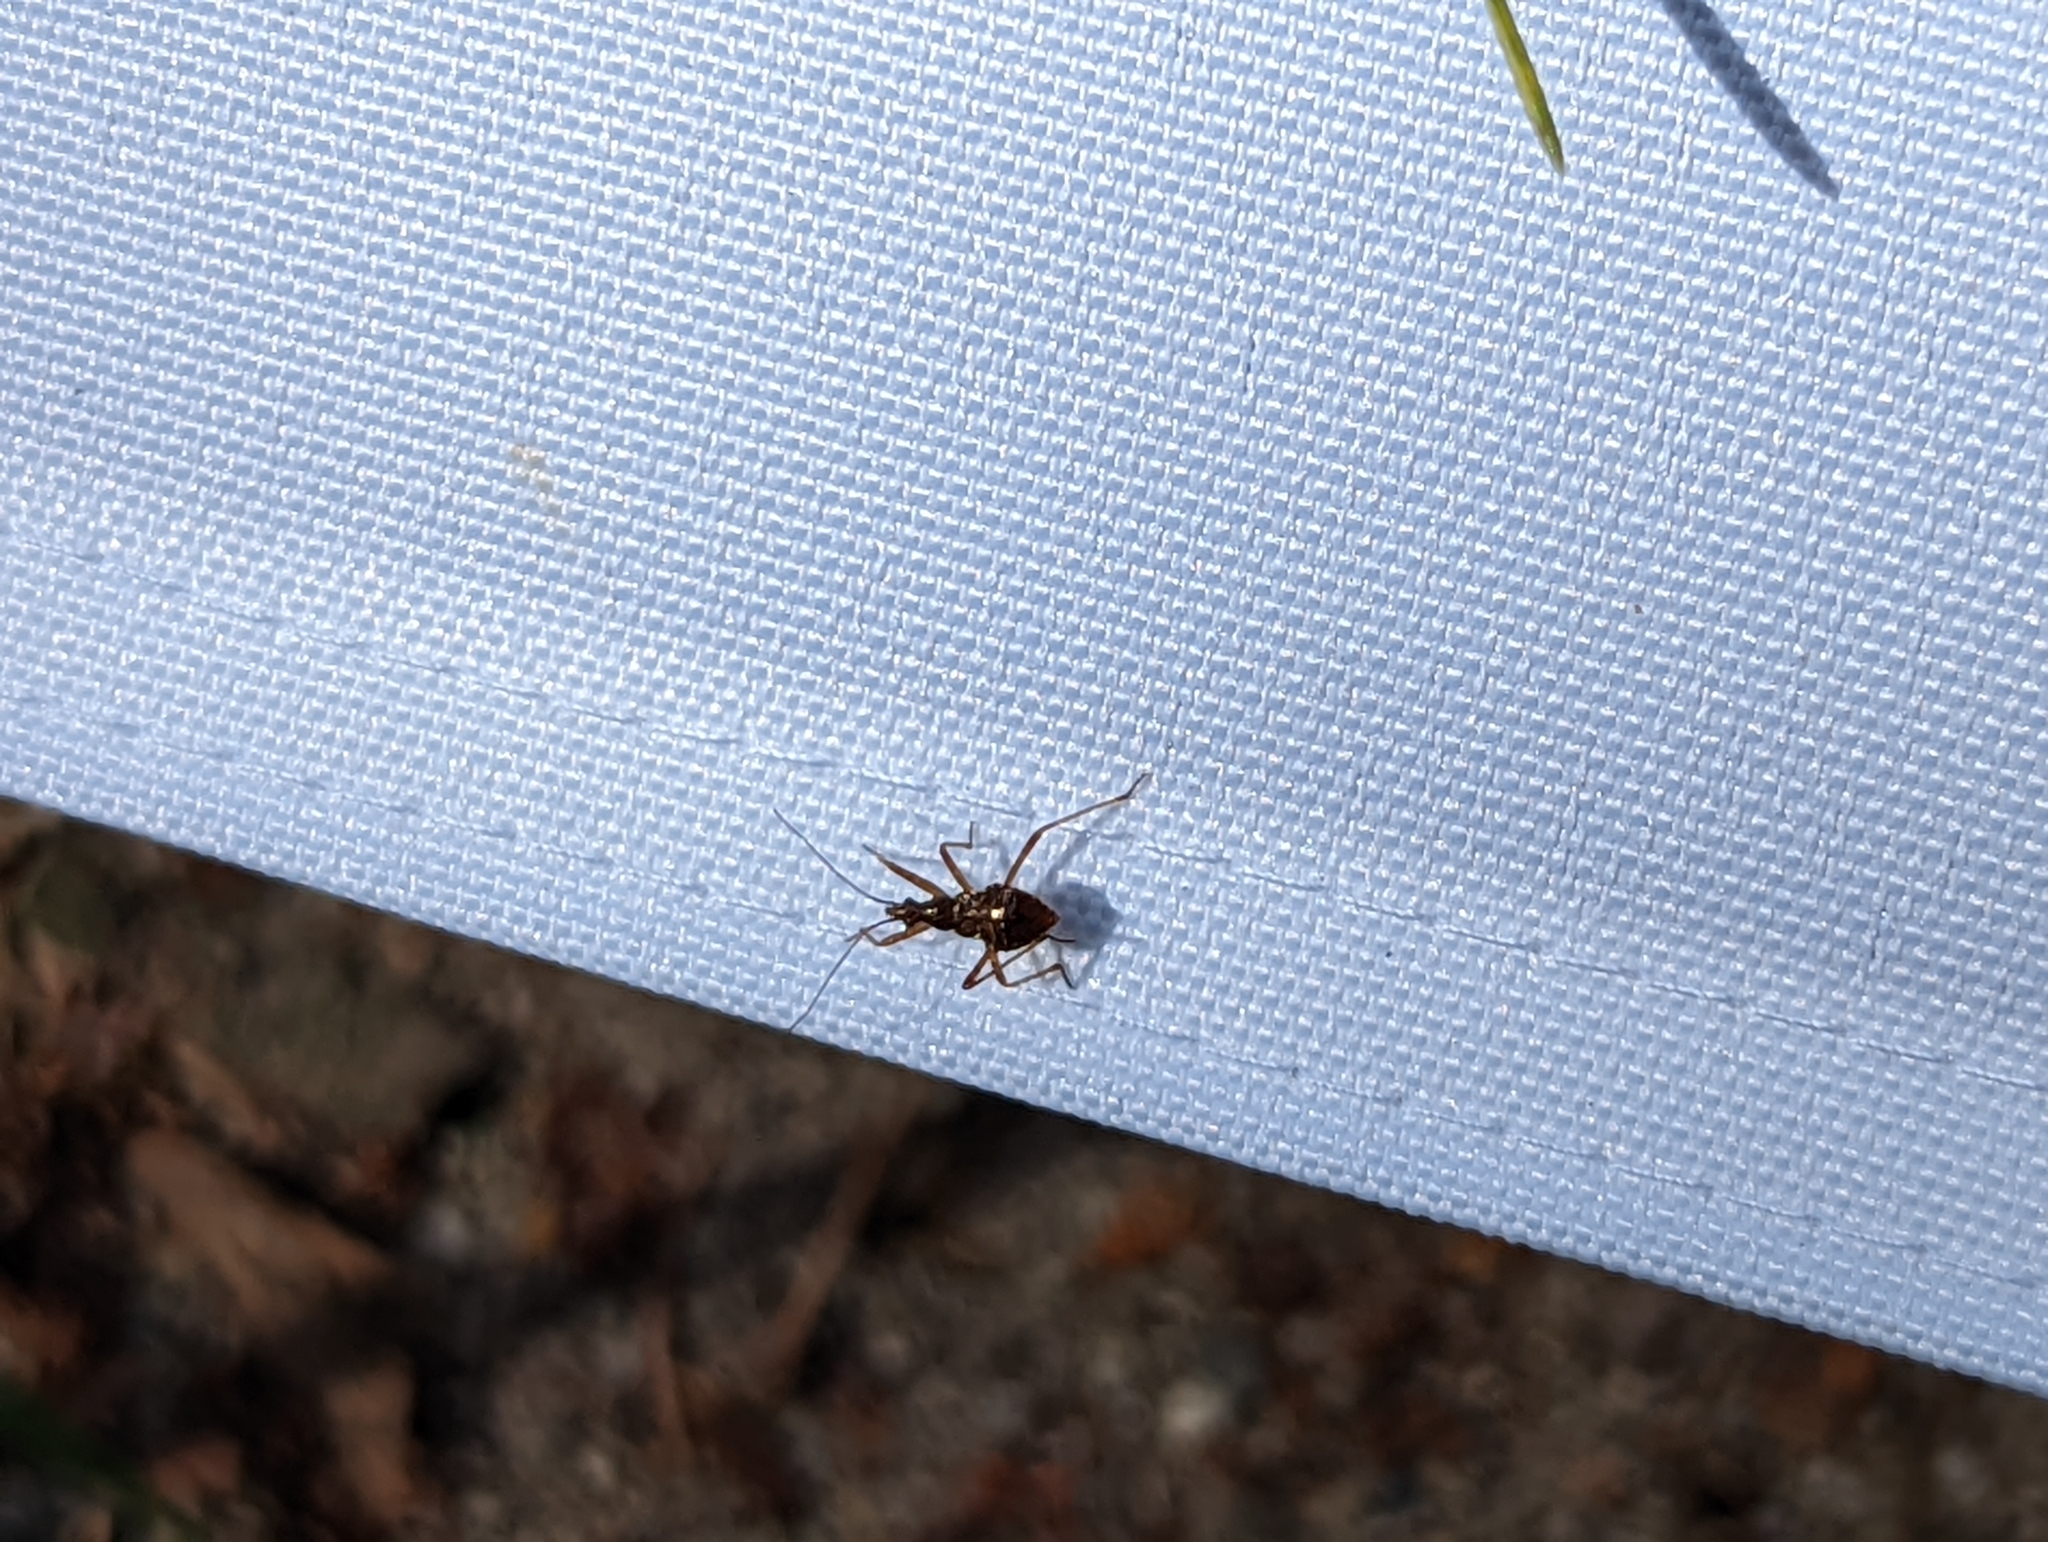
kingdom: Animalia
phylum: Arthropoda
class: Insecta
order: Hemiptera
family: Nabidae
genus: Himacerus
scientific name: Himacerus apterus
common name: Tree damsel bug
